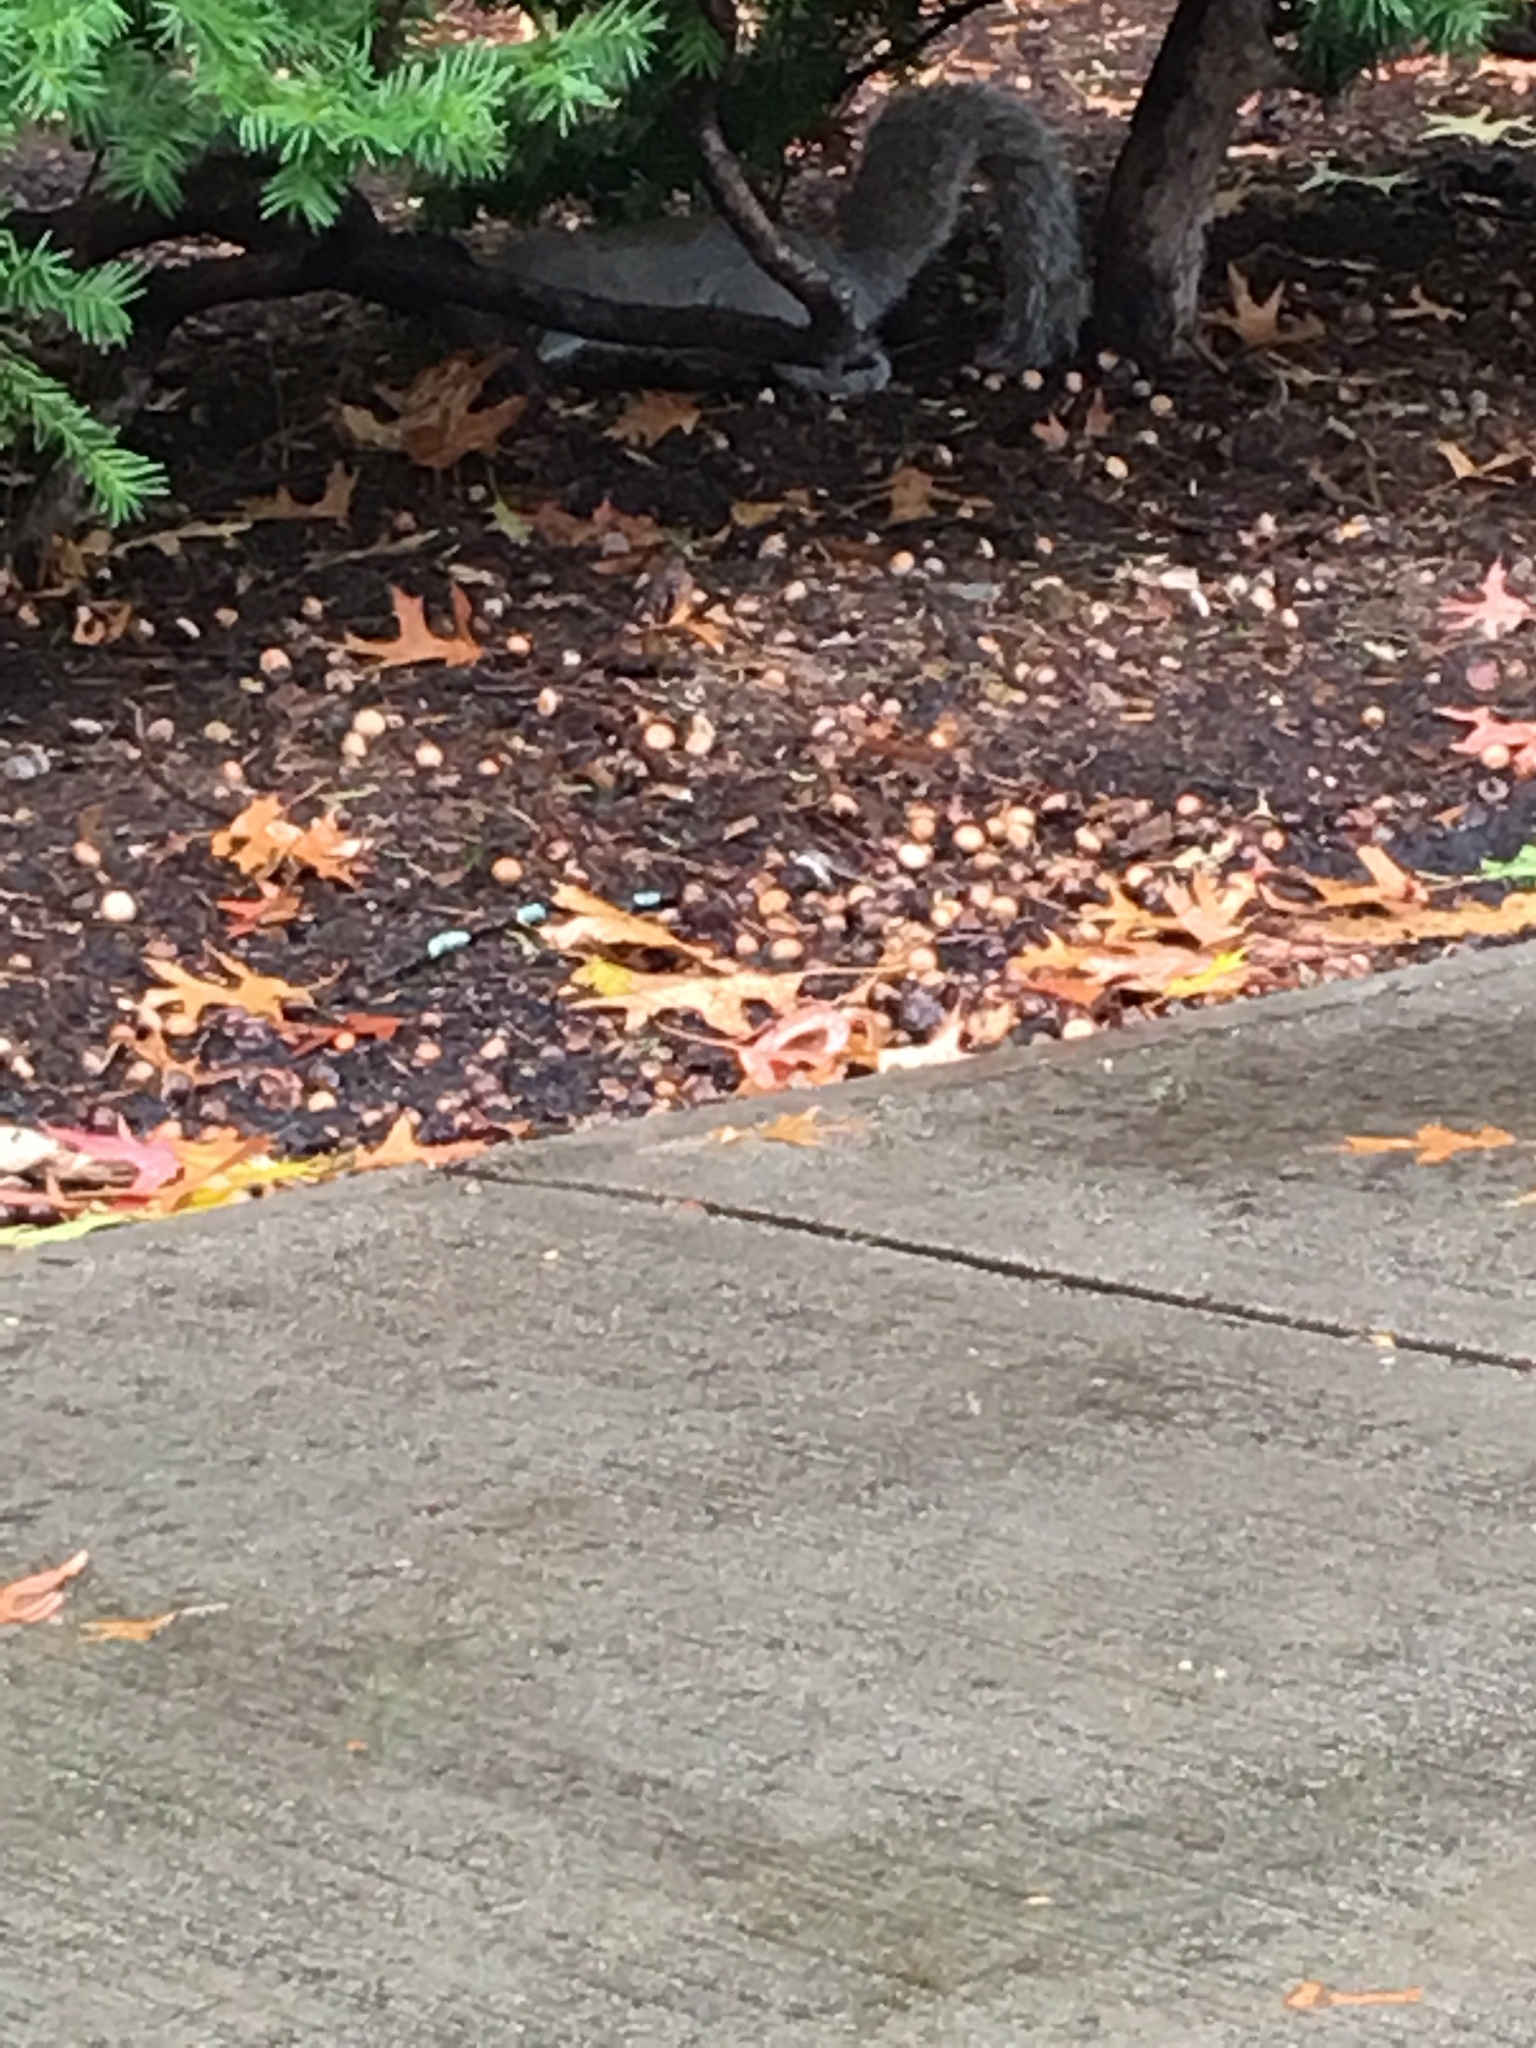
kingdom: Animalia
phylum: Chordata
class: Mammalia
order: Rodentia
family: Sciuridae
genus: Sciurus
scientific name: Sciurus carolinensis
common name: Eastern gray squirrel
